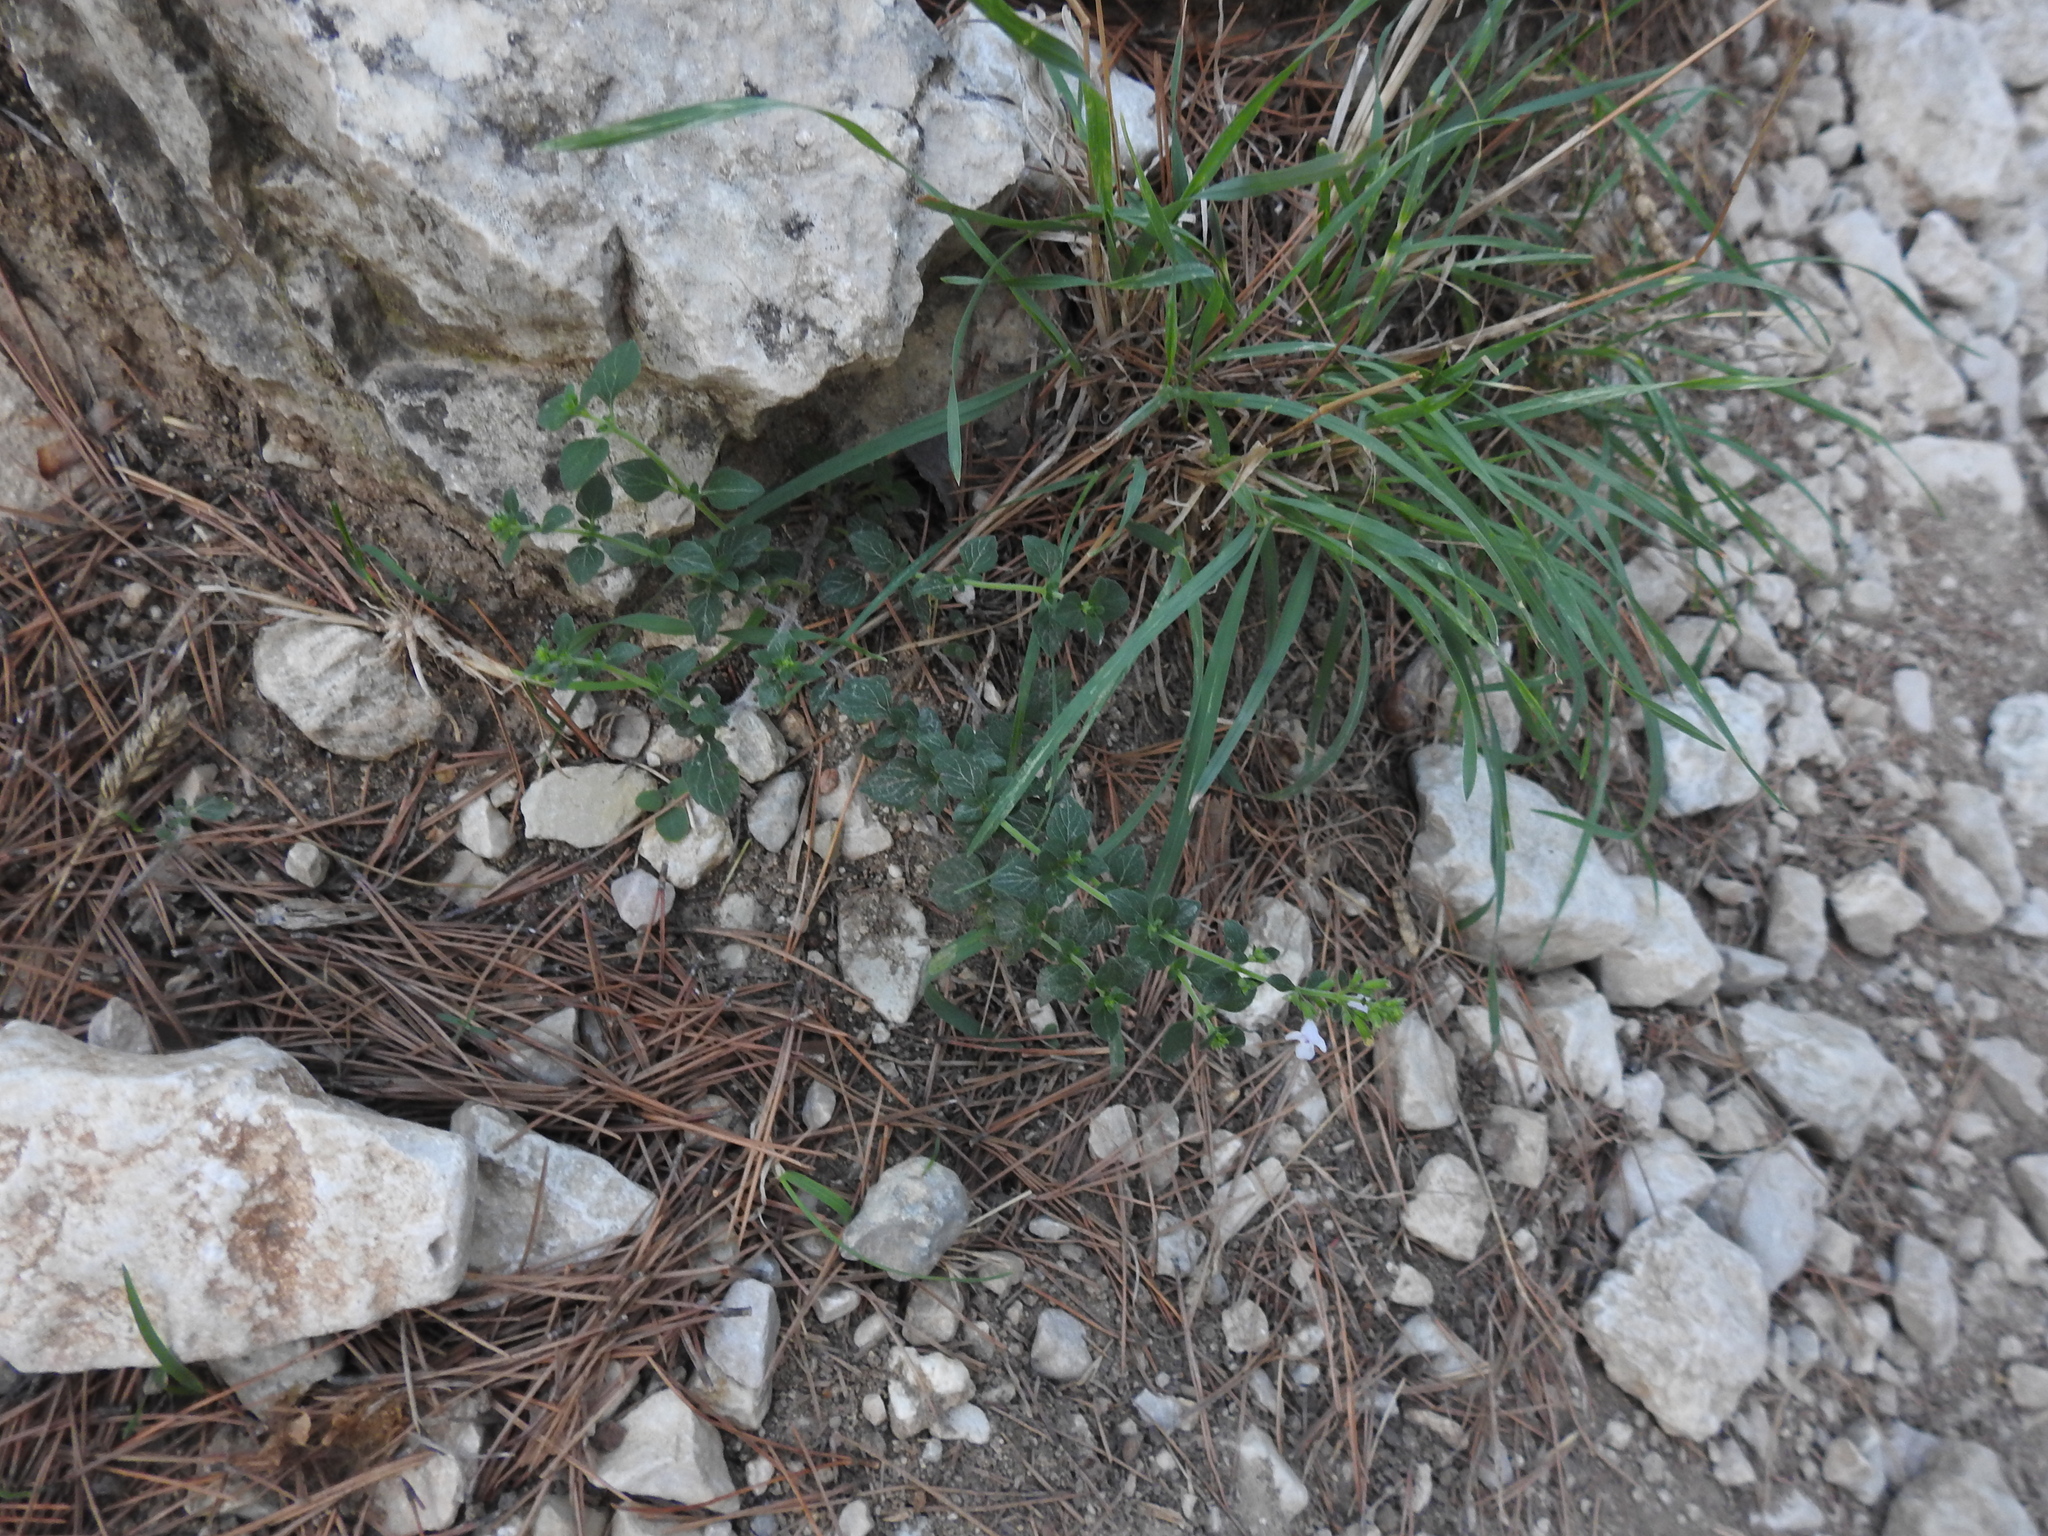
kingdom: Plantae
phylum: Tracheophyta
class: Magnoliopsida
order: Lamiales
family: Lamiaceae
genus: Clinopodium
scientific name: Clinopodium nepeta
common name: Lesser calamint
